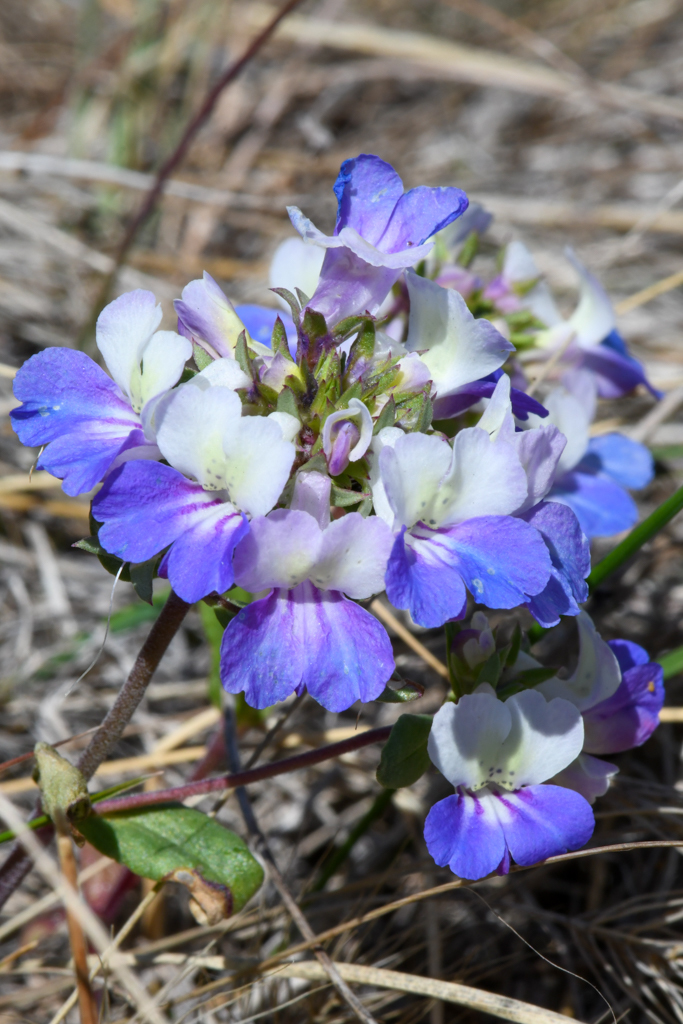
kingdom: Plantae
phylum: Tracheophyta
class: Magnoliopsida
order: Lamiales
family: Plantaginaceae
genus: Collinsia
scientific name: Collinsia grandiflora
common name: Large-flower blue-eyed-mary
